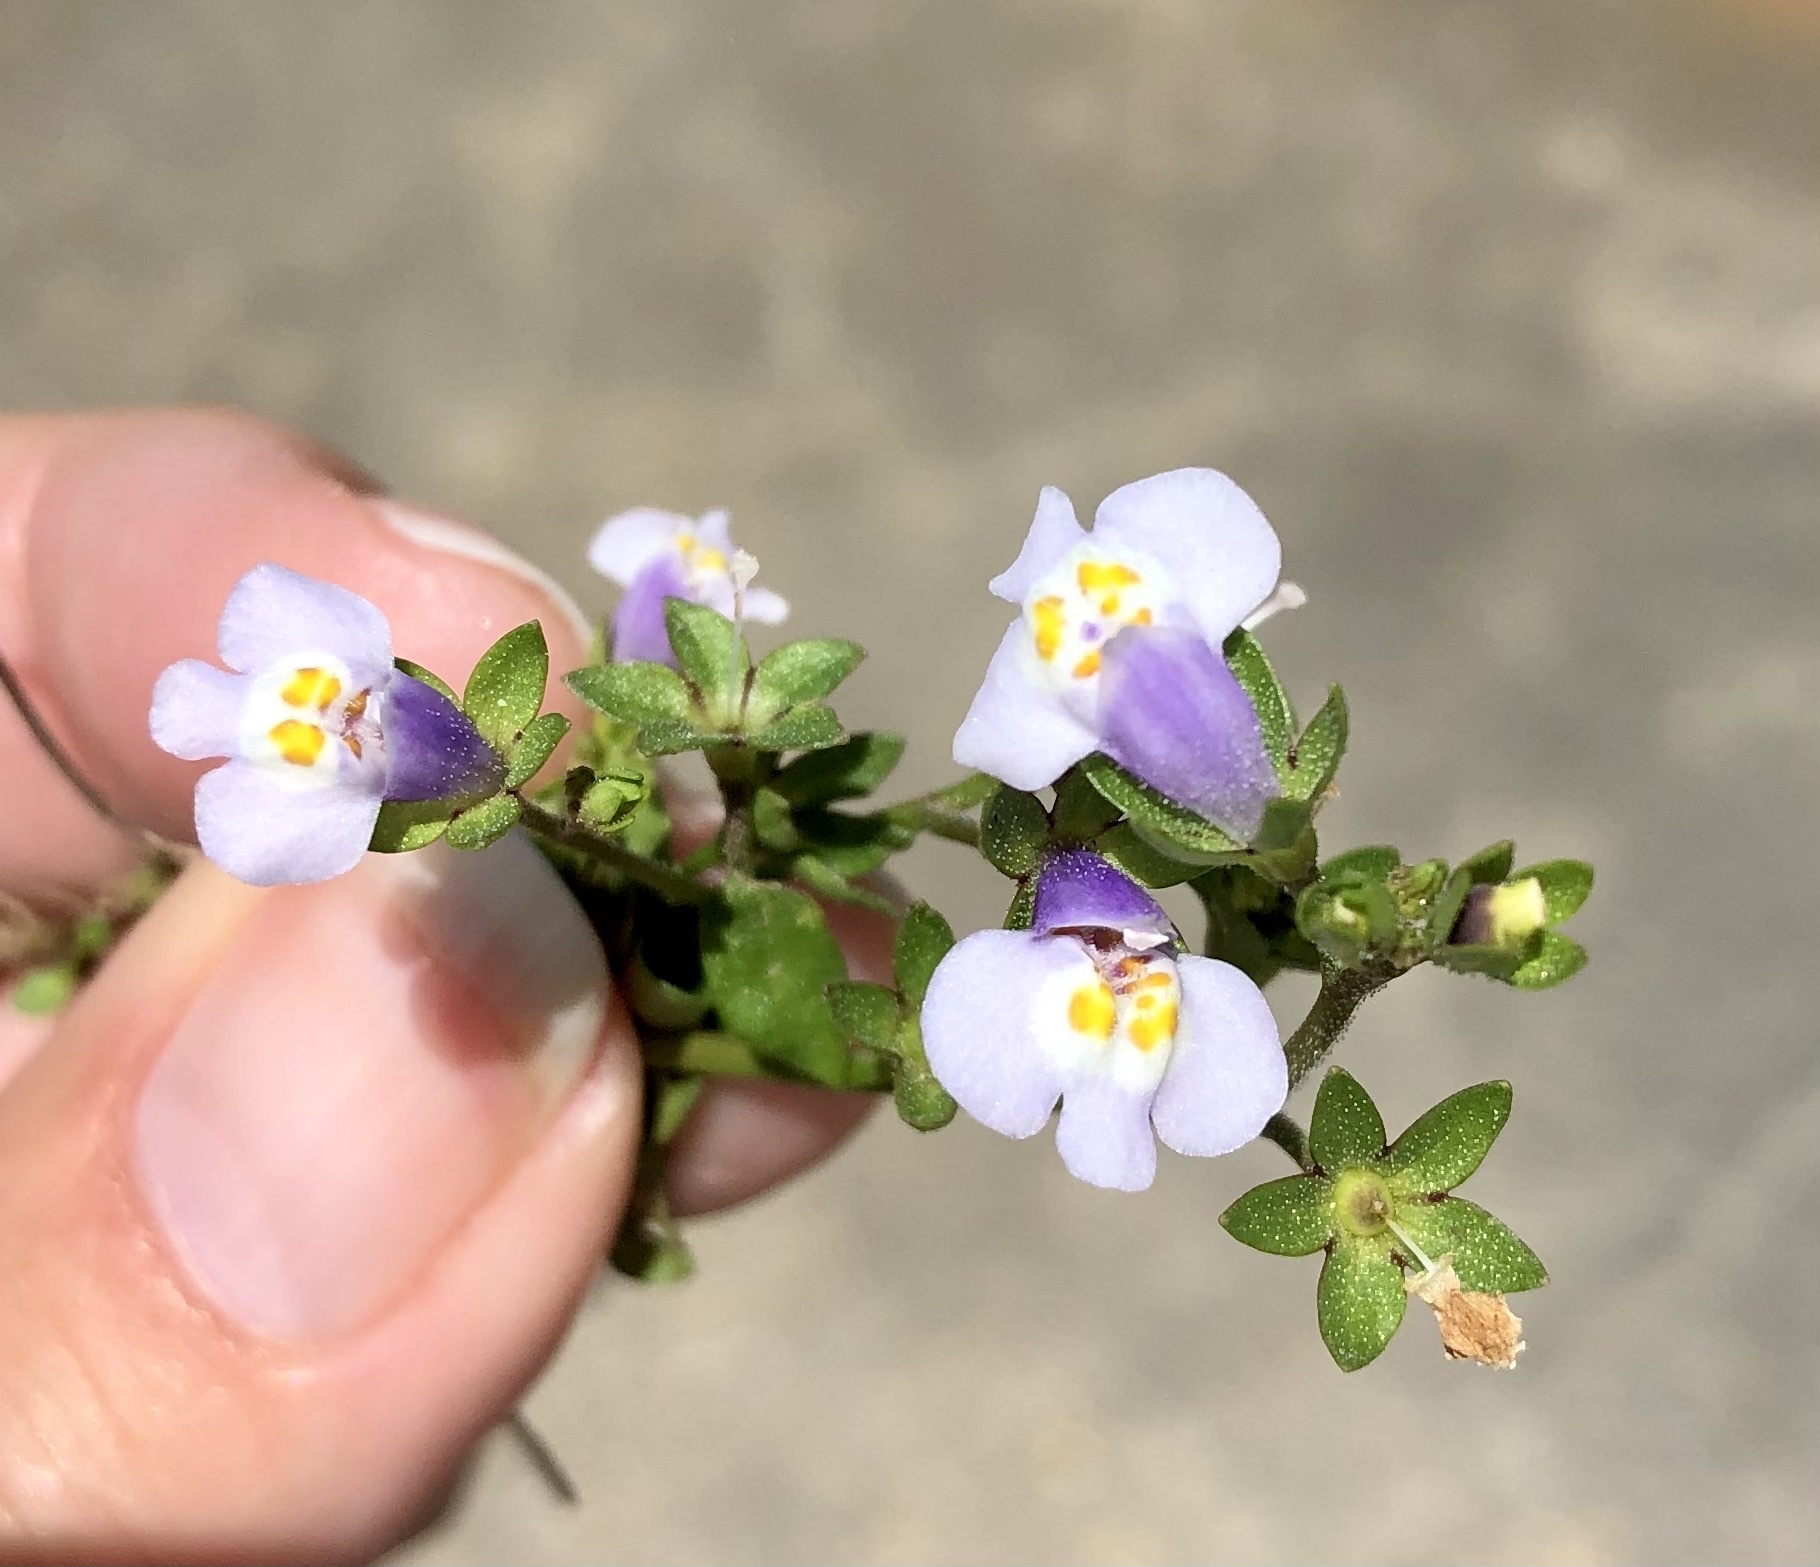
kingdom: Plantae
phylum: Tracheophyta
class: Magnoliopsida
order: Lamiales
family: Mazaceae
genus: Mazus
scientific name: Mazus pumilus
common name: Japanese mazus
